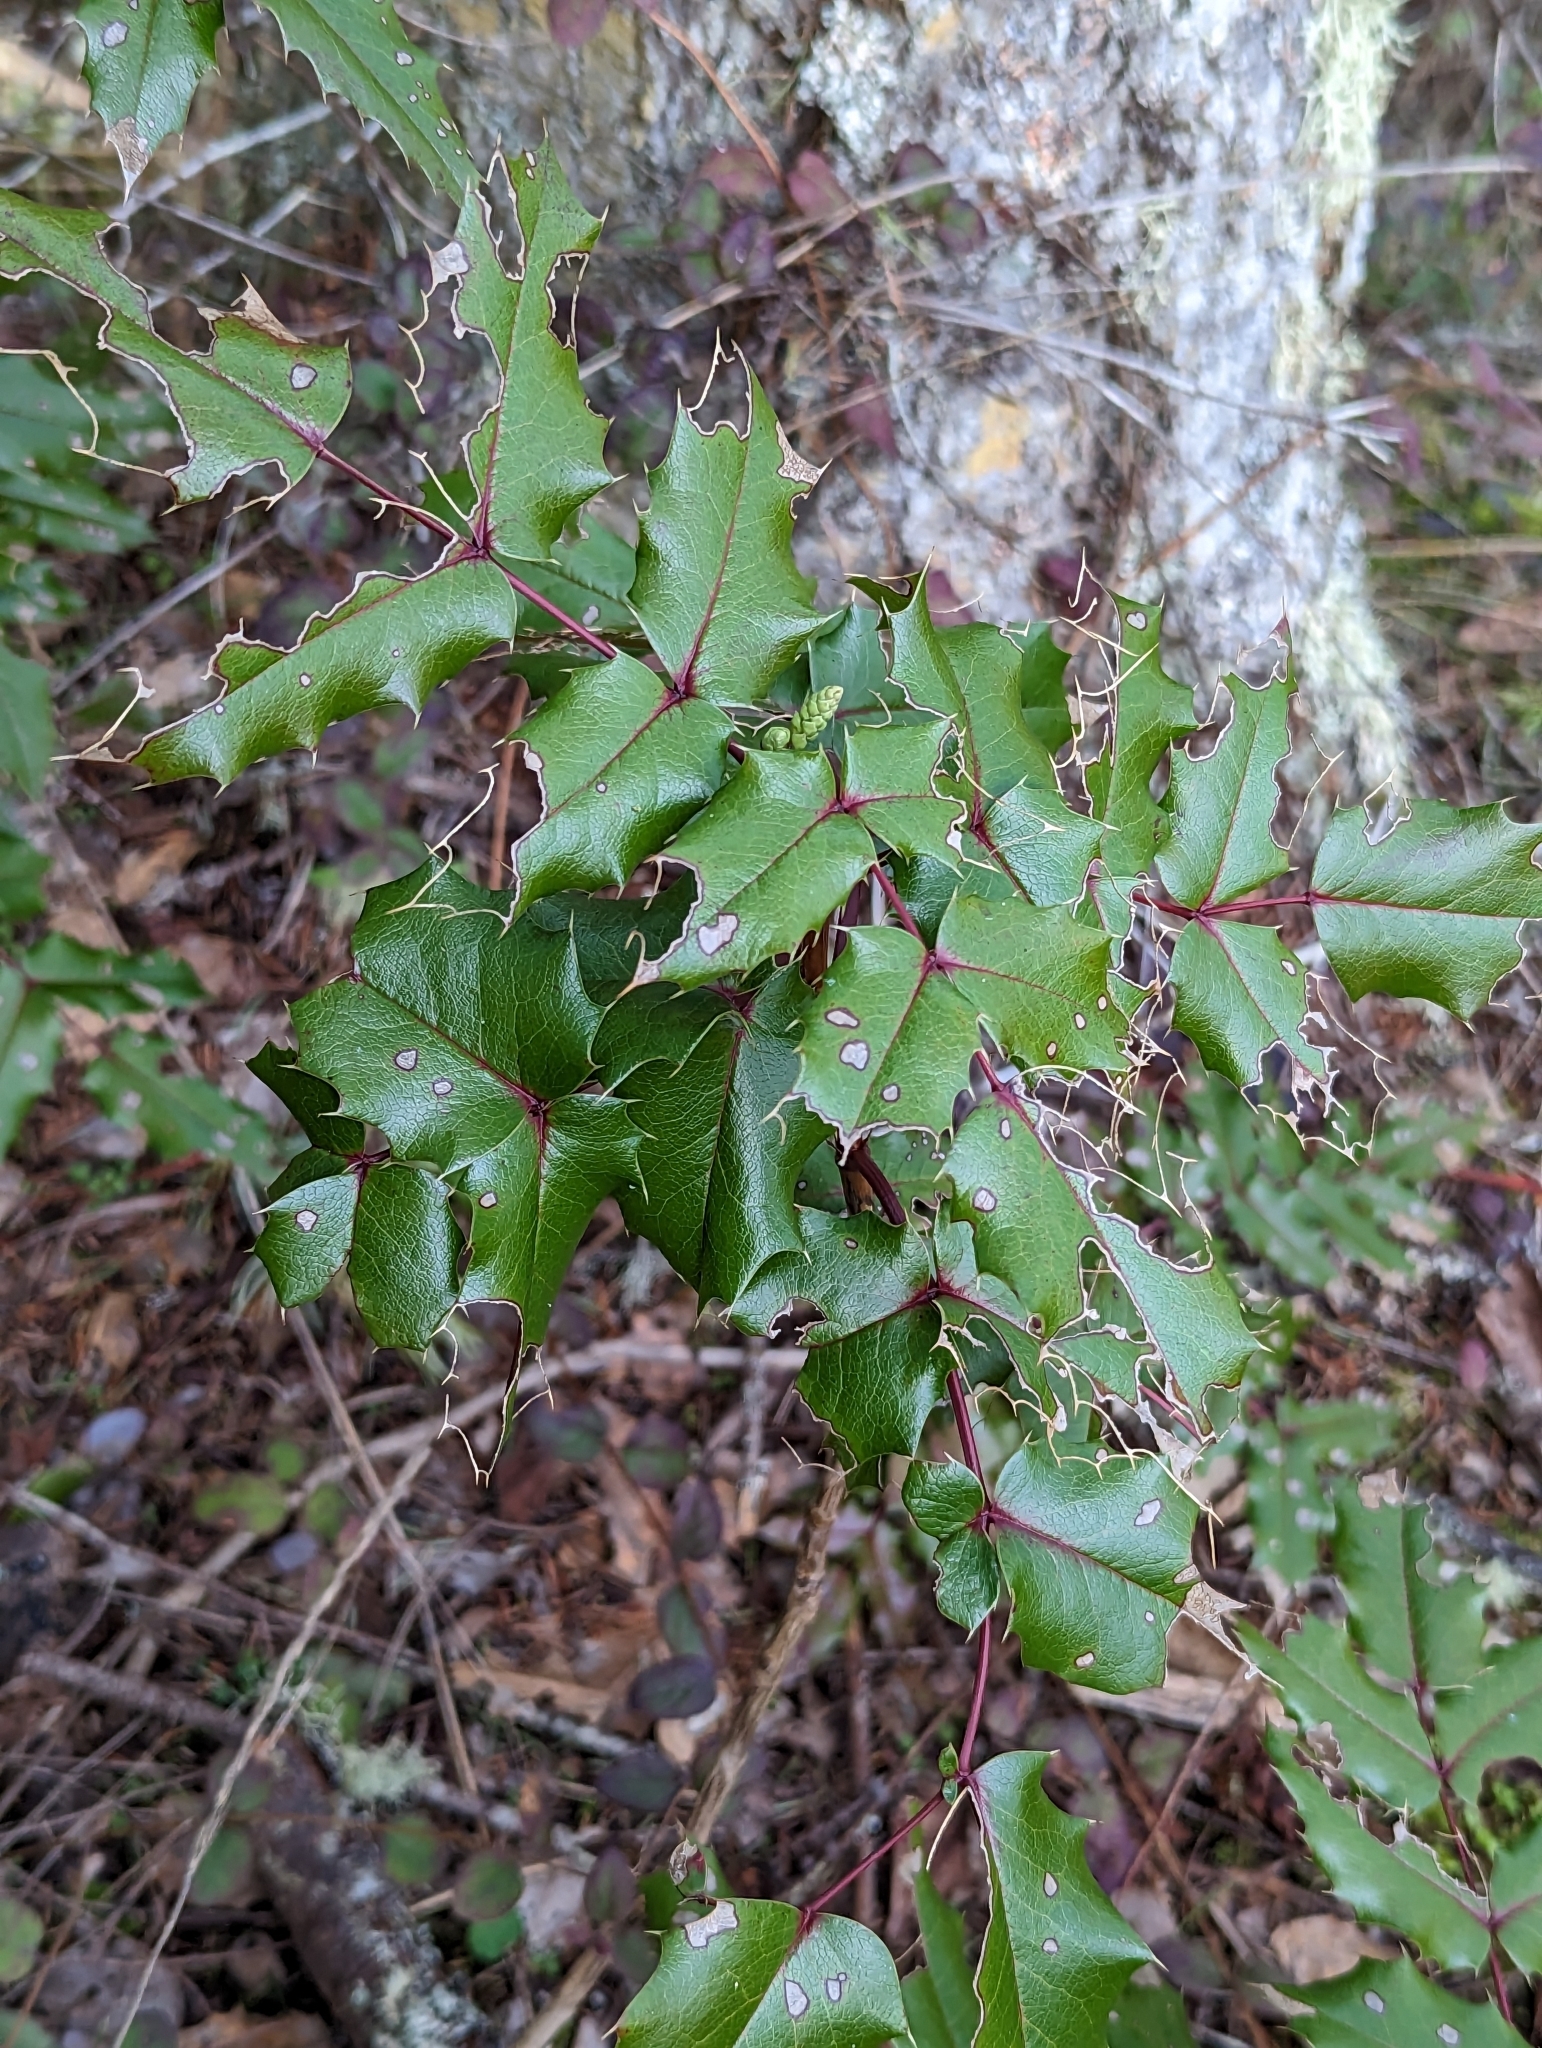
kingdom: Plantae
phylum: Tracheophyta
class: Magnoliopsida
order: Ranunculales
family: Berberidaceae
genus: Mahonia
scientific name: Mahonia aquifolium
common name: Oregon-grape
